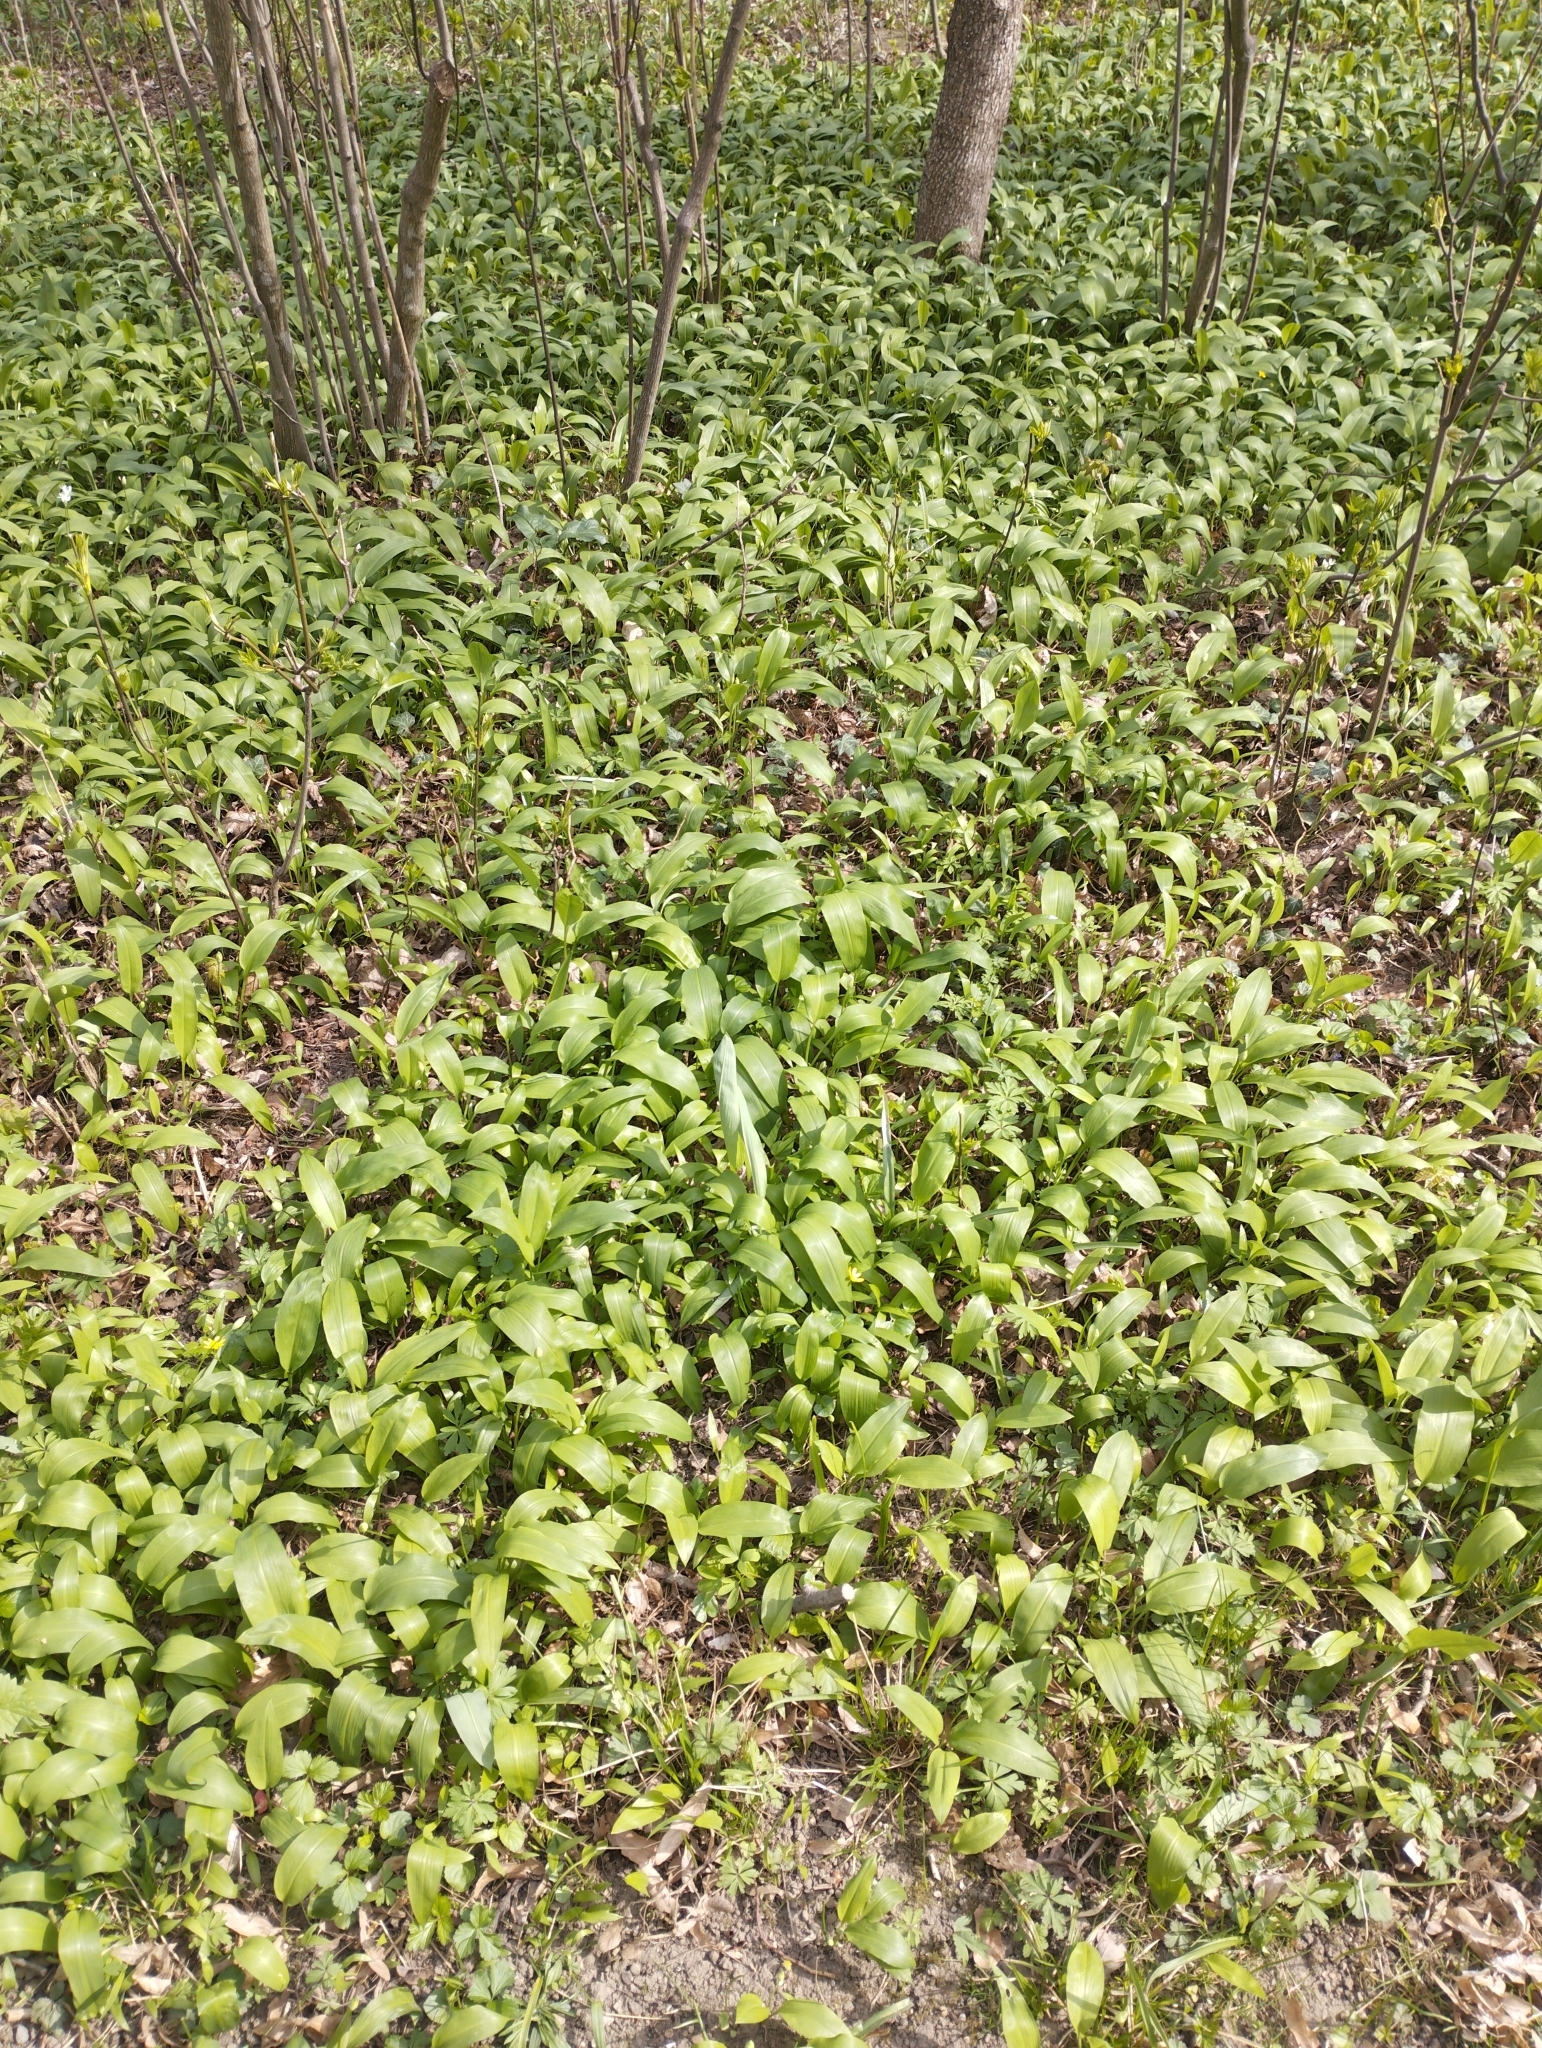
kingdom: Plantae
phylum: Tracheophyta
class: Liliopsida
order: Asparagales
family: Amaryllidaceae
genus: Allium
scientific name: Allium ursinum
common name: Ramsons
